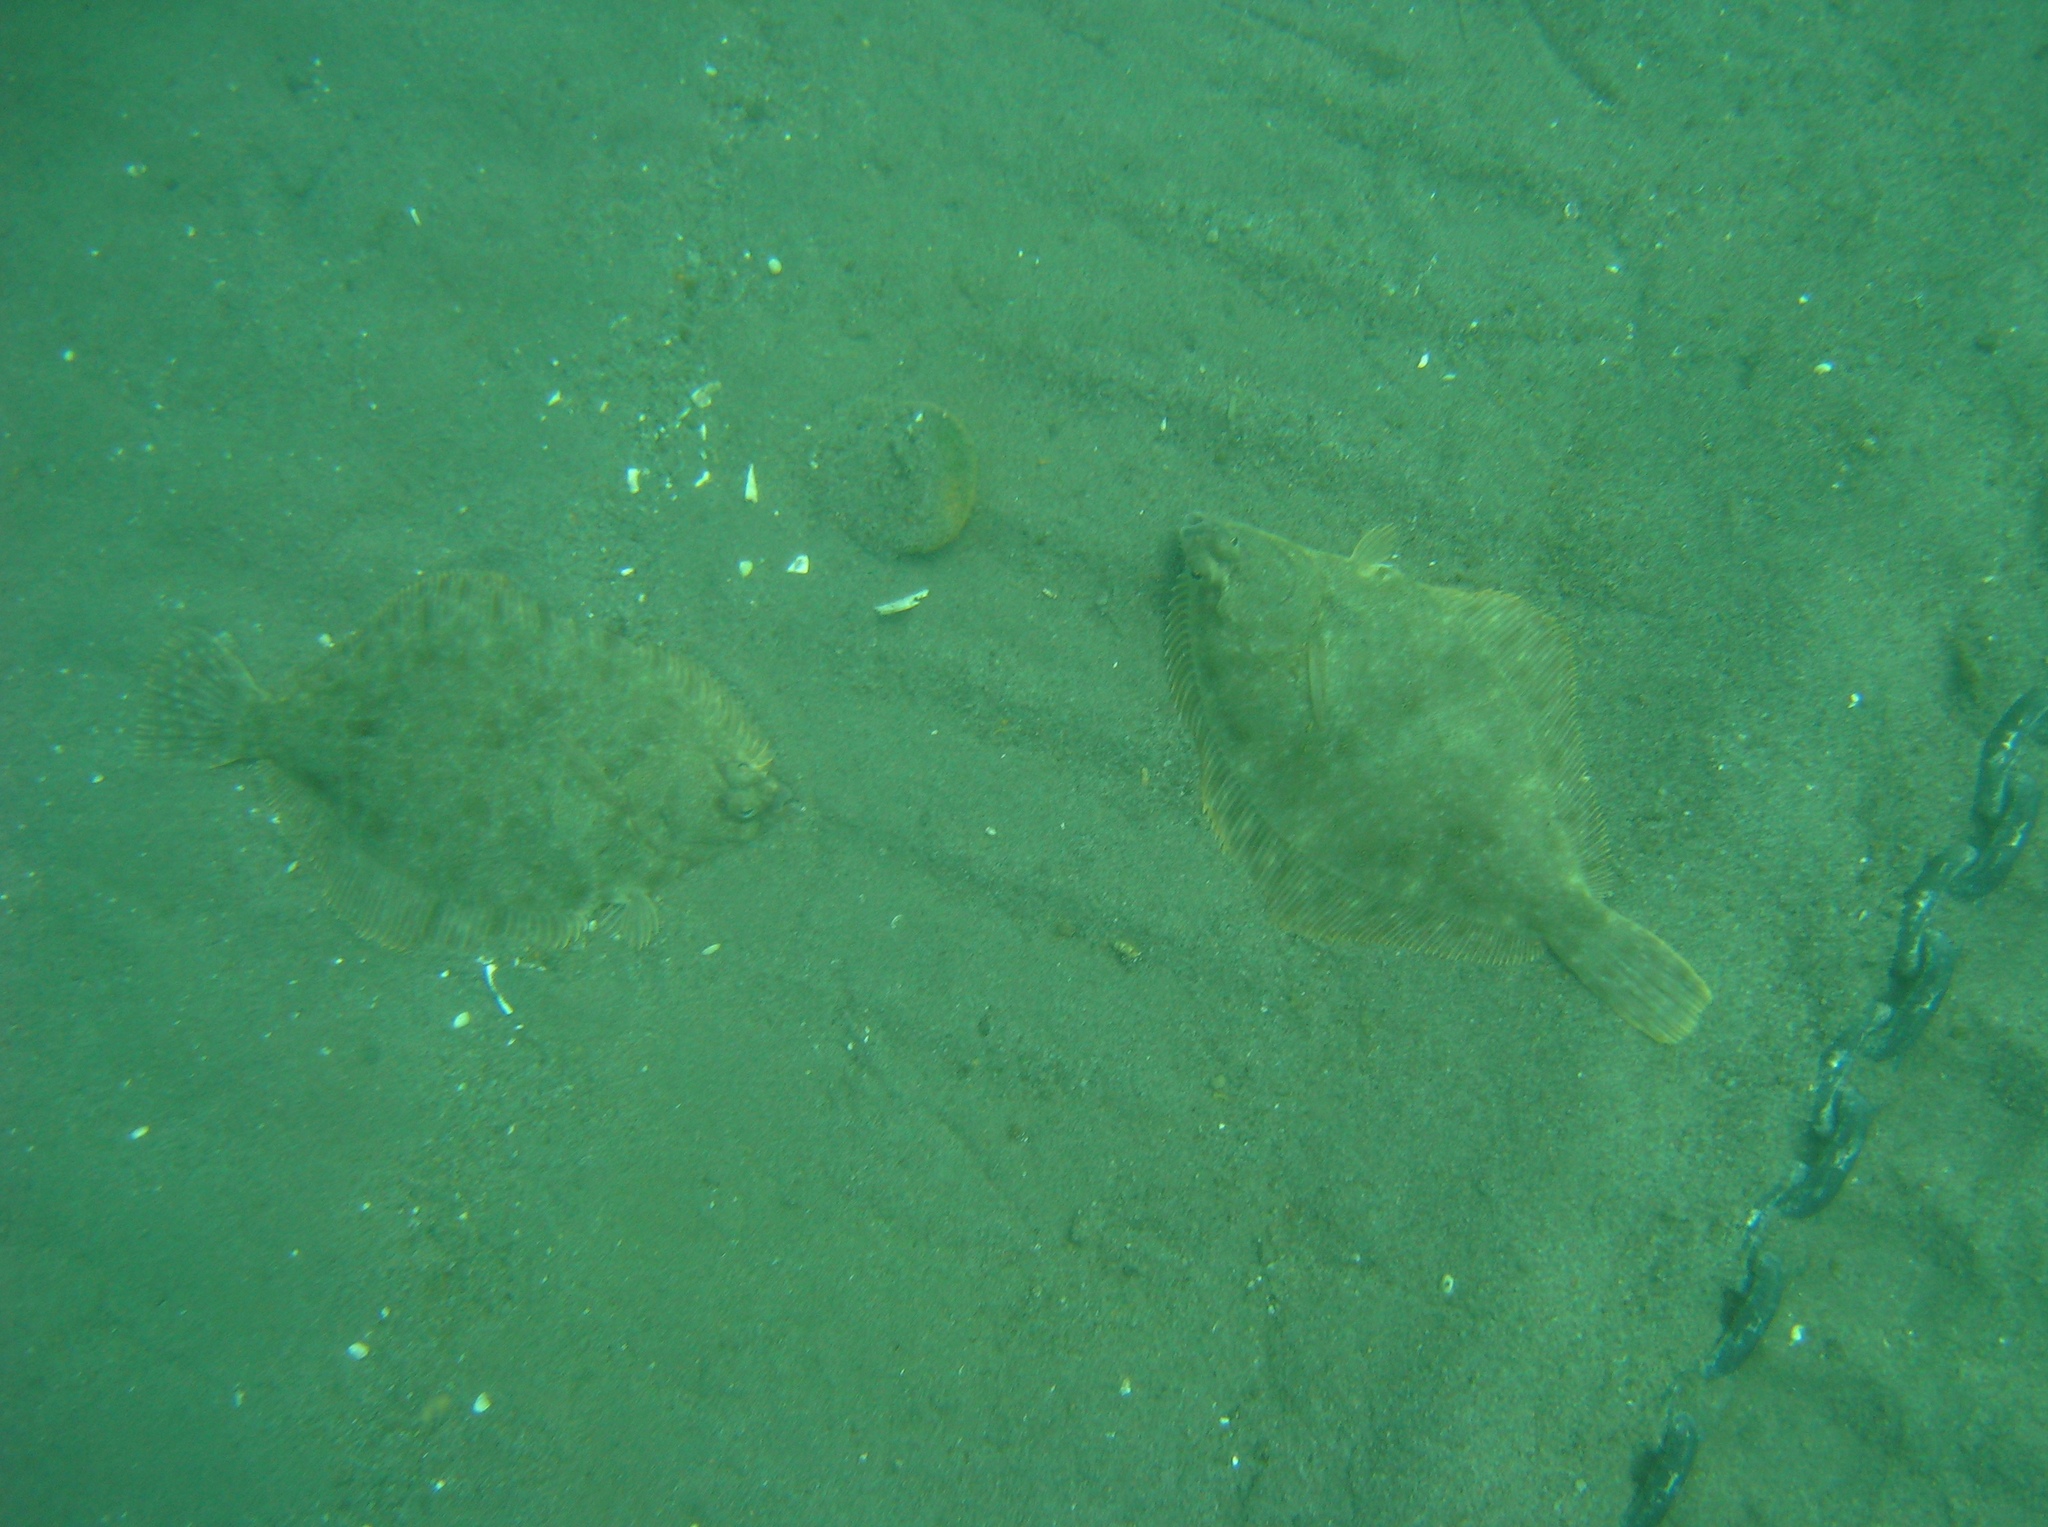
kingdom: Animalia
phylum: Chordata
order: Pleuronectiformes
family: Pleuronectidae
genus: Lepidopsetta
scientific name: Lepidopsetta bilineata
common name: Southern rock sole
